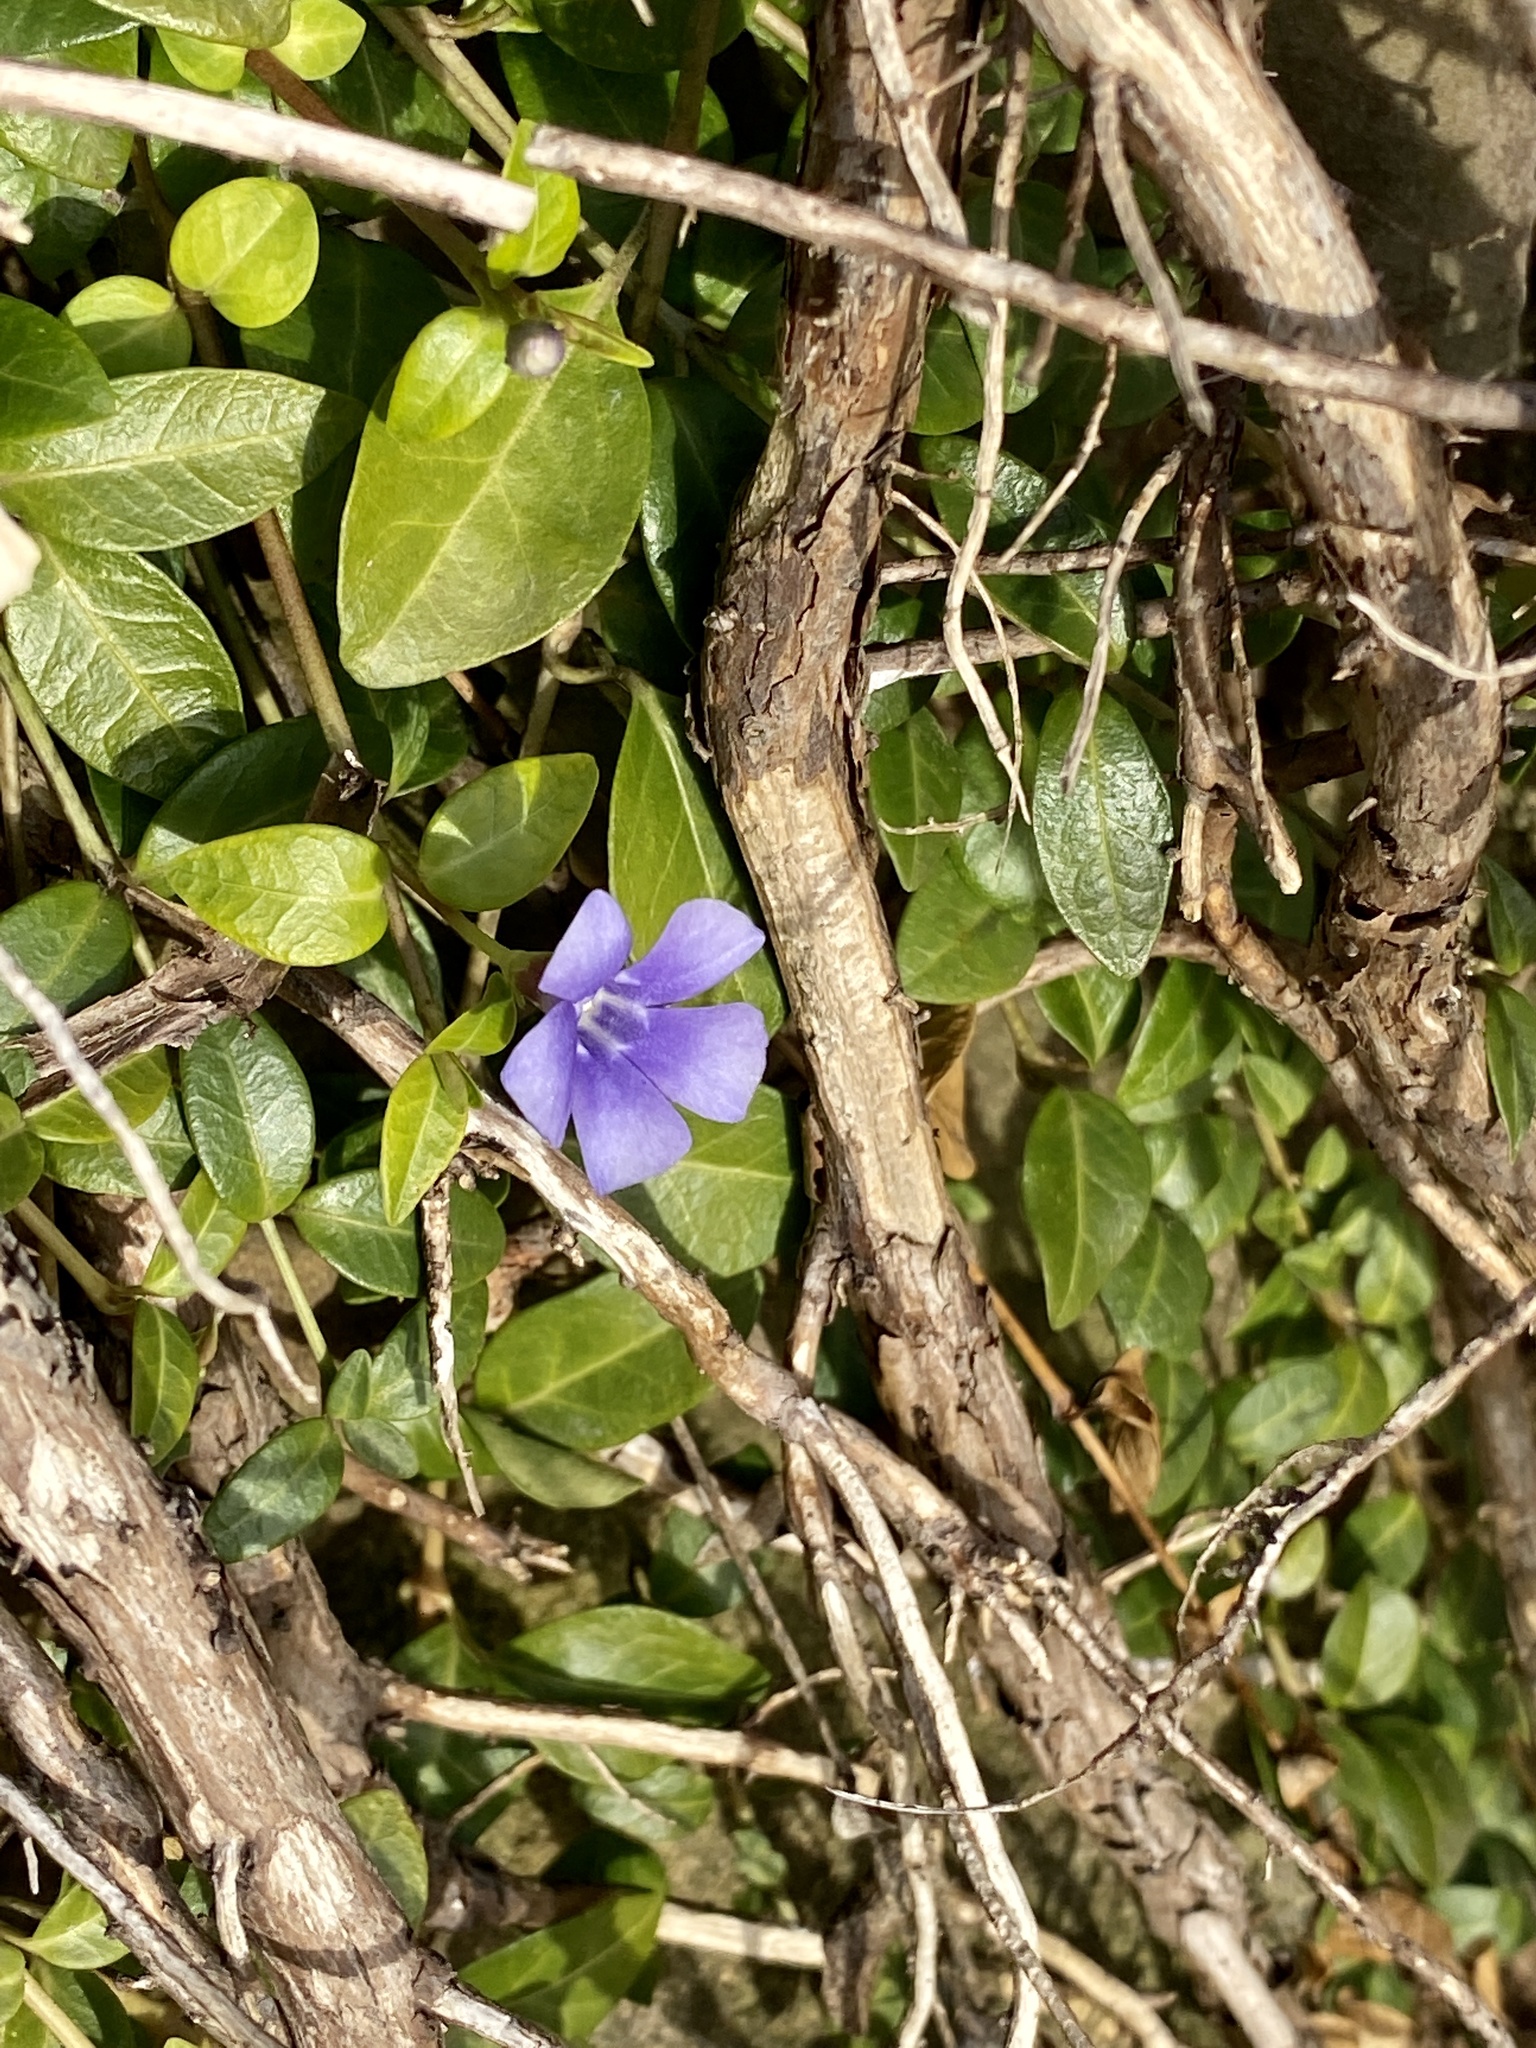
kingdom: Plantae
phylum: Tracheophyta
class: Magnoliopsida
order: Gentianales
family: Apocynaceae
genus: Vinca
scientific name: Vinca minor
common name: Lesser periwinkle
